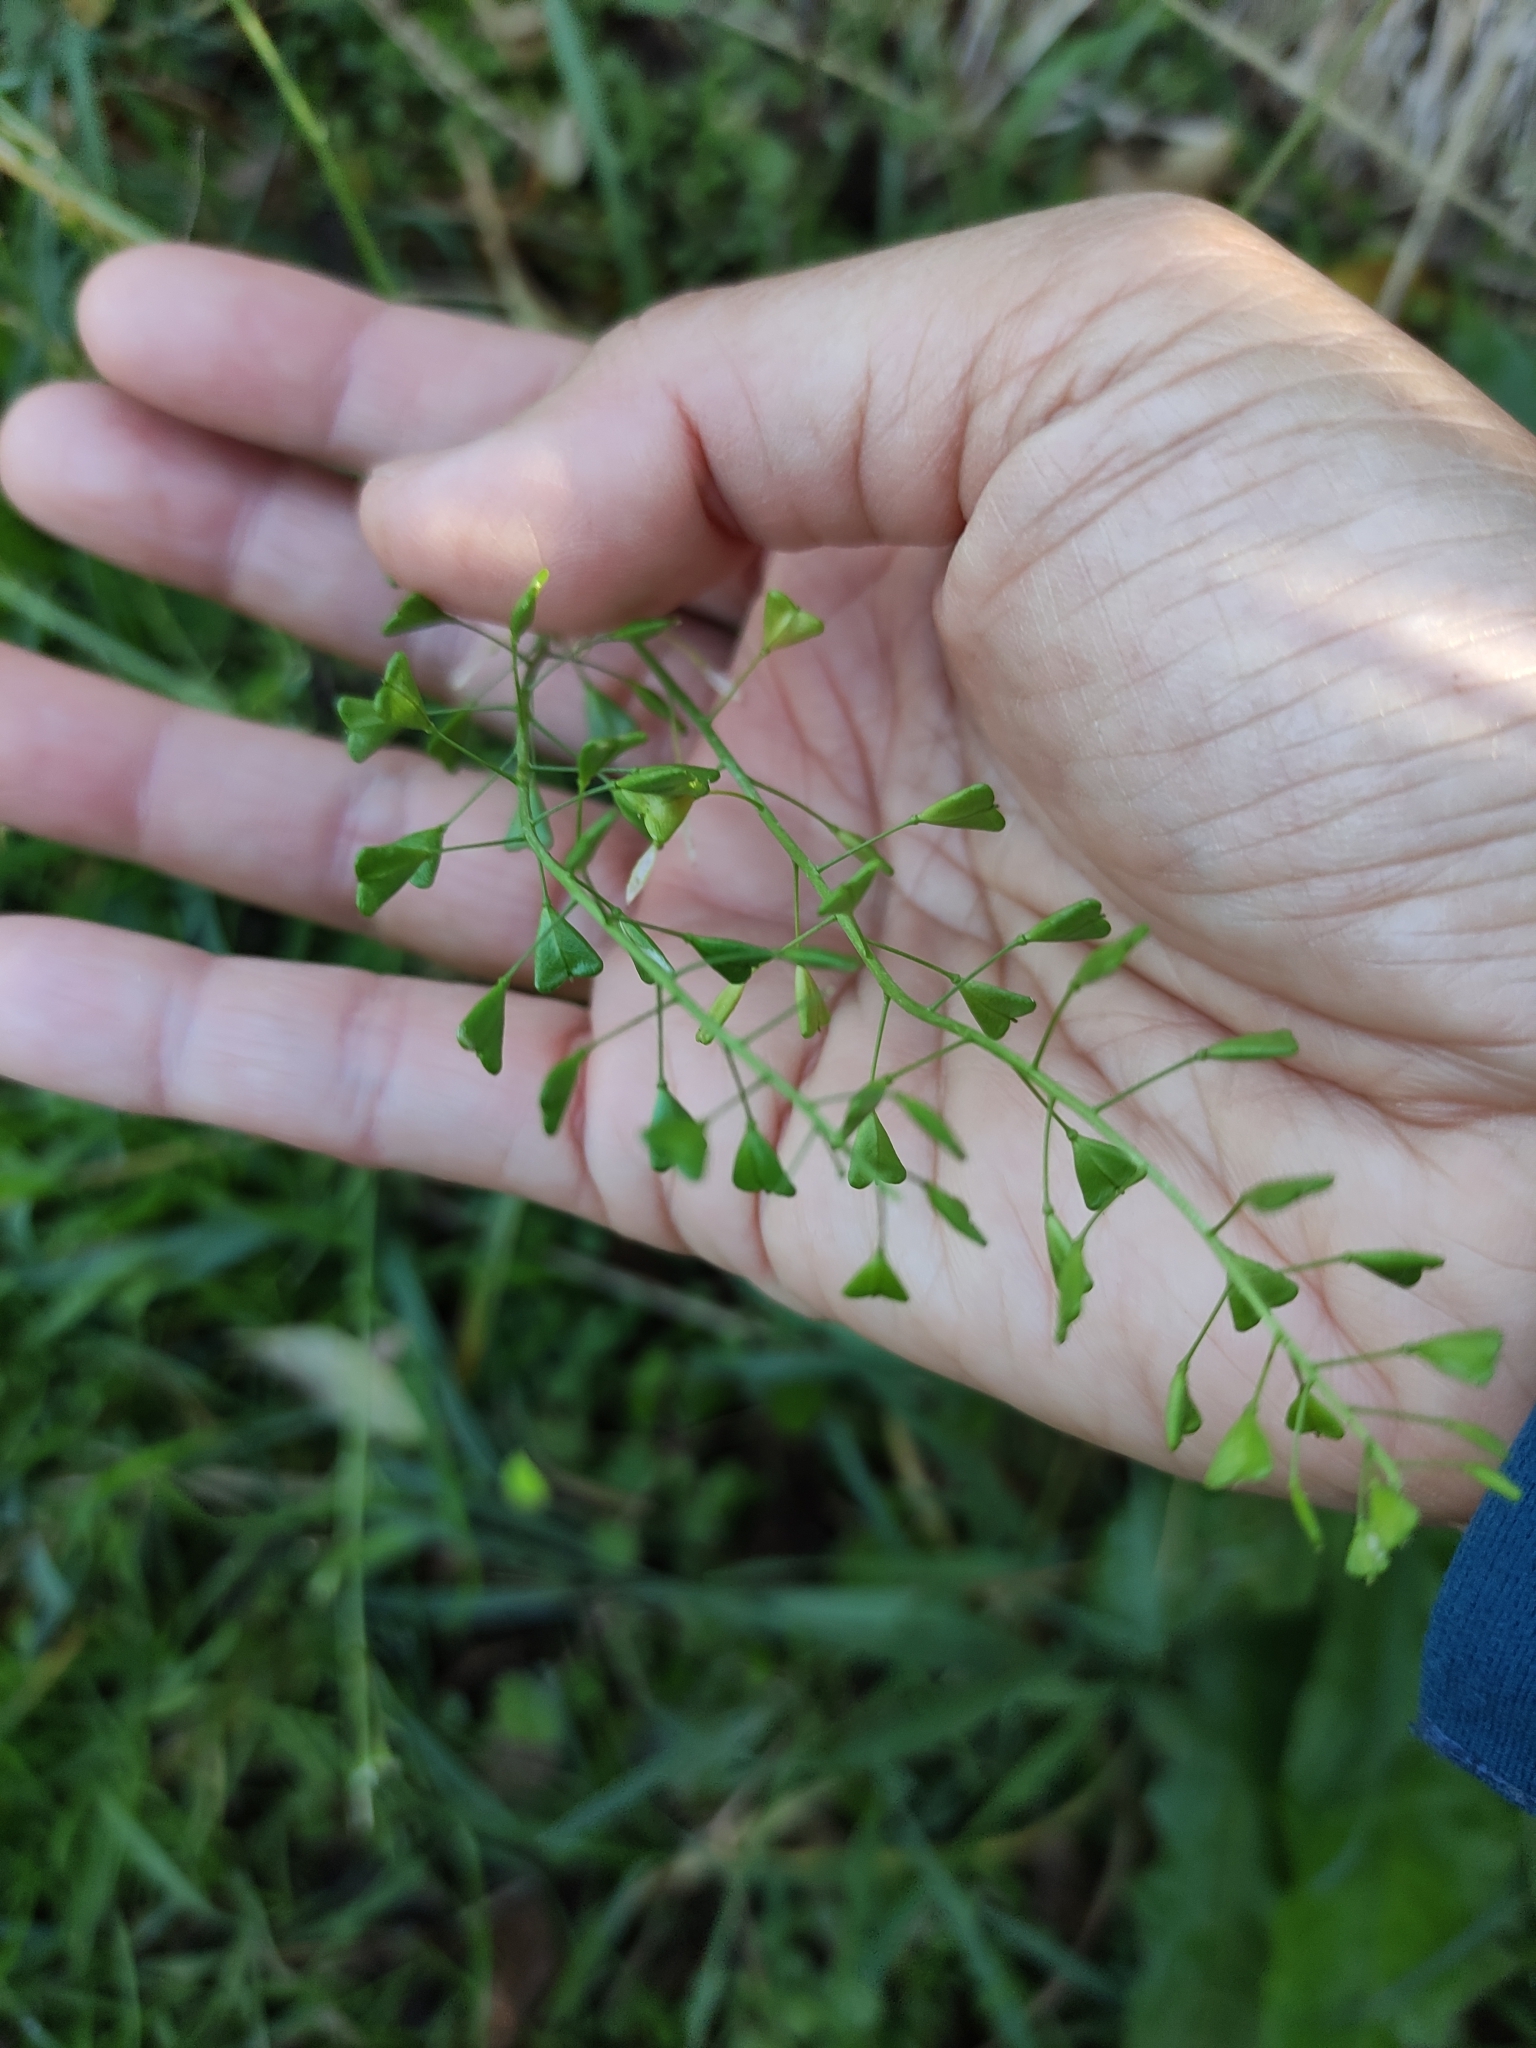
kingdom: Plantae
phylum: Tracheophyta
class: Magnoliopsida
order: Brassicales
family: Brassicaceae
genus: Capsella
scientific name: Capsella bursa-pastoris
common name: Shepherd's purse
